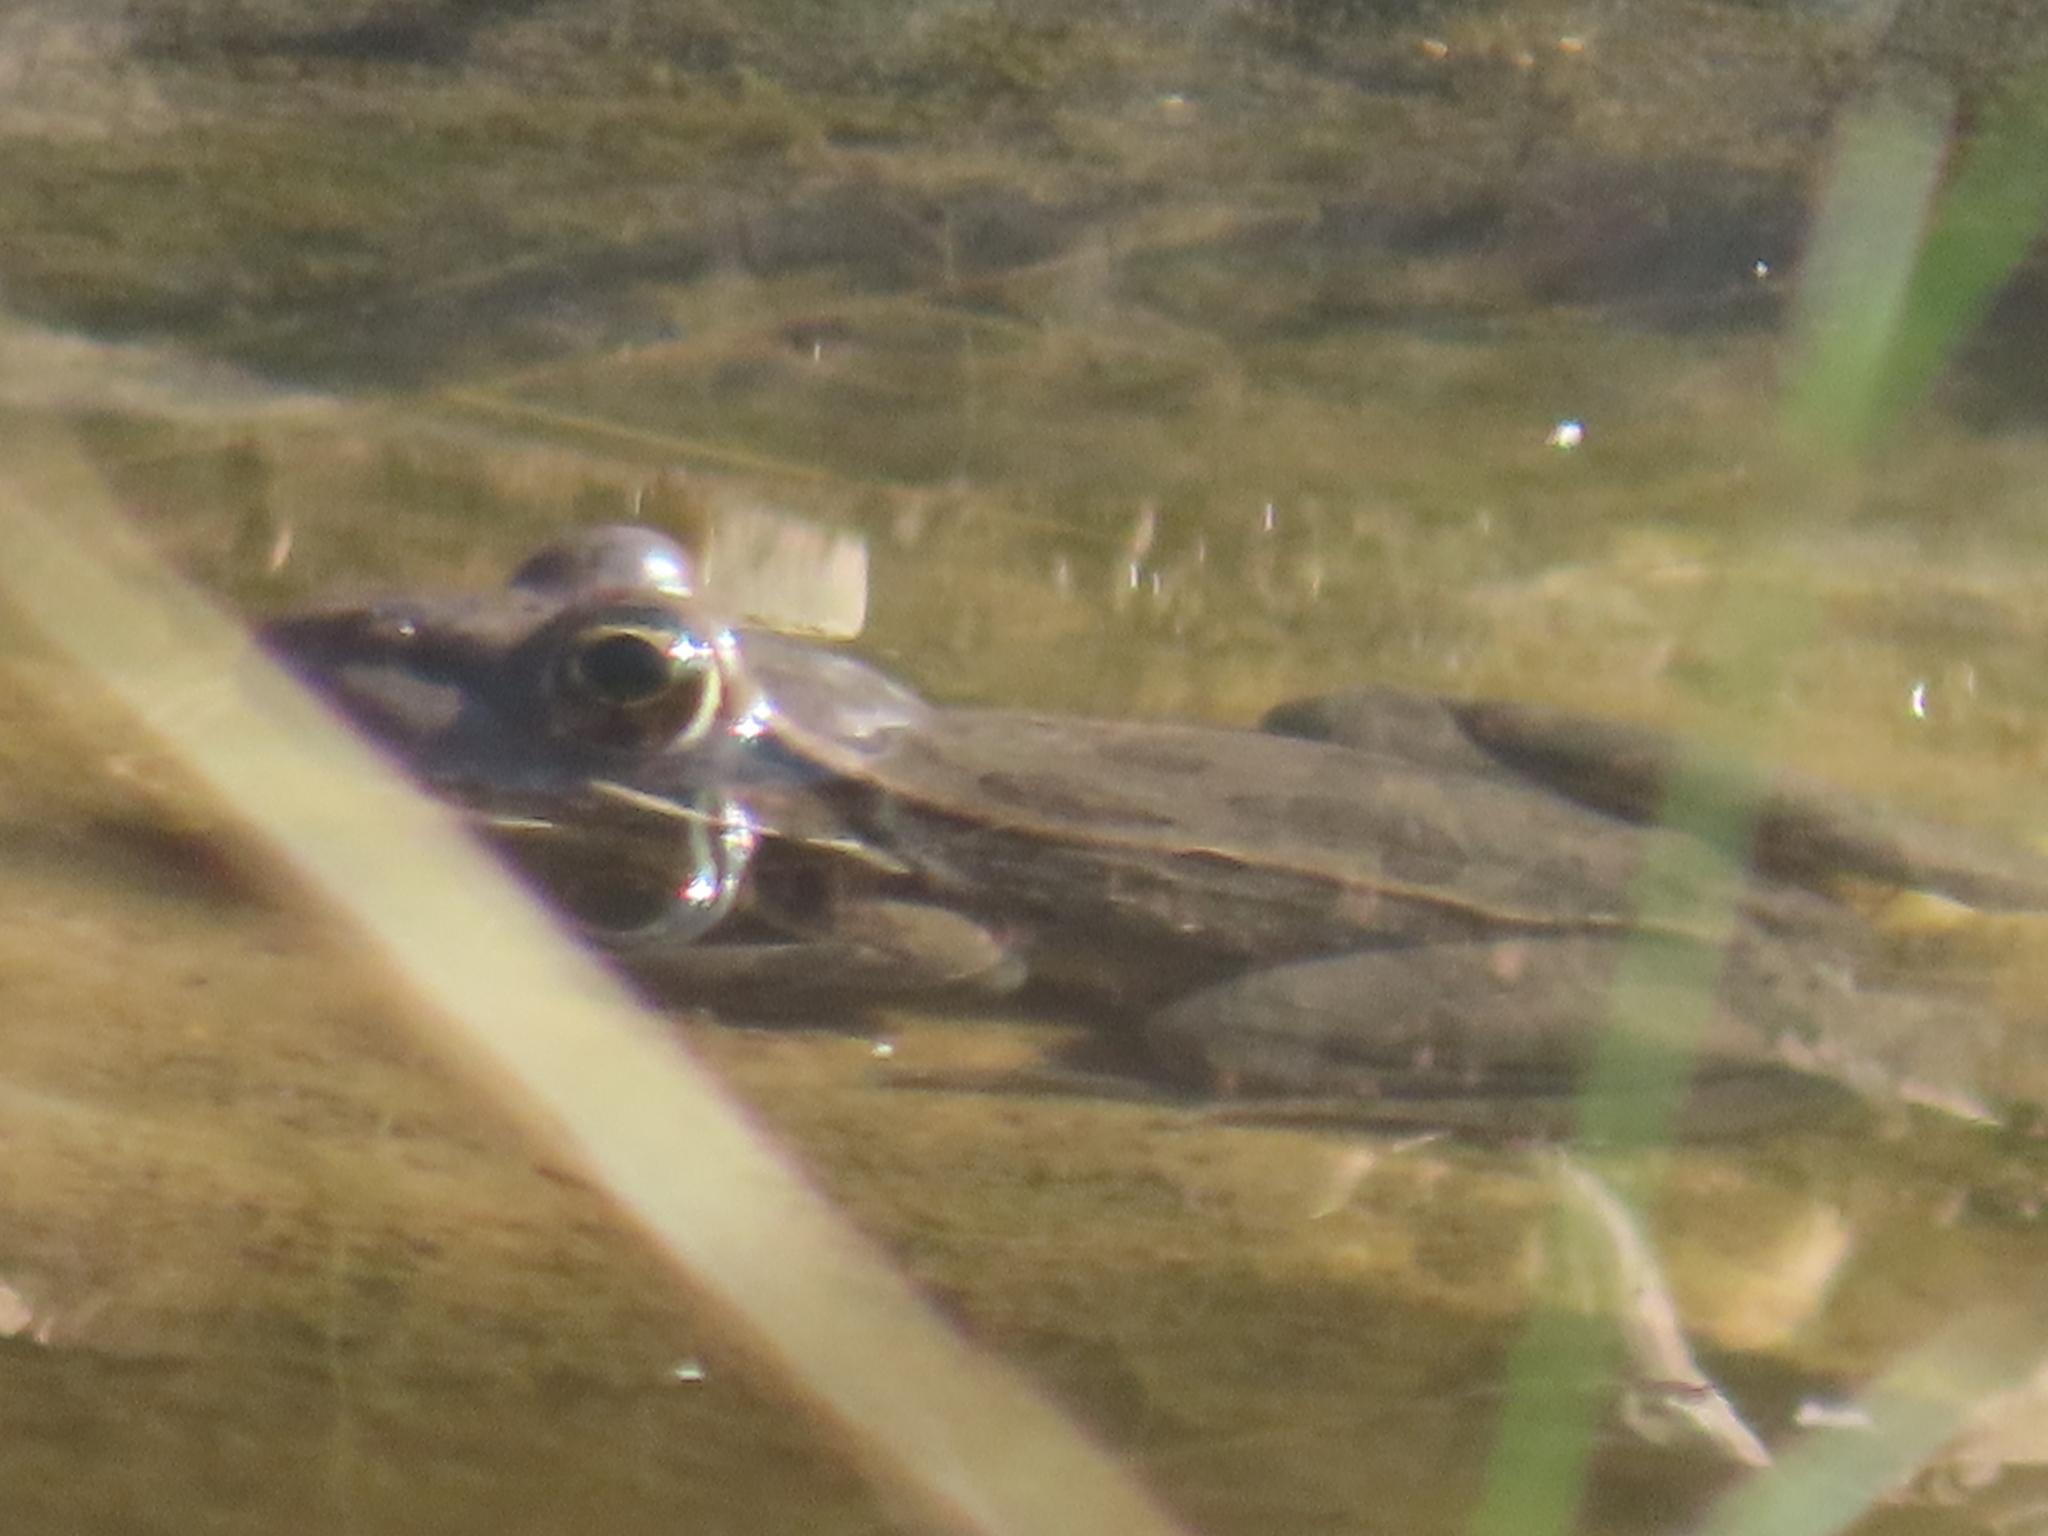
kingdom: Animalia
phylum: Chordata
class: Amphibia
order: Anura
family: Ranidae
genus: Lithobates
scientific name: Lithobates berlandieri
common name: Rio grande leopard frog
